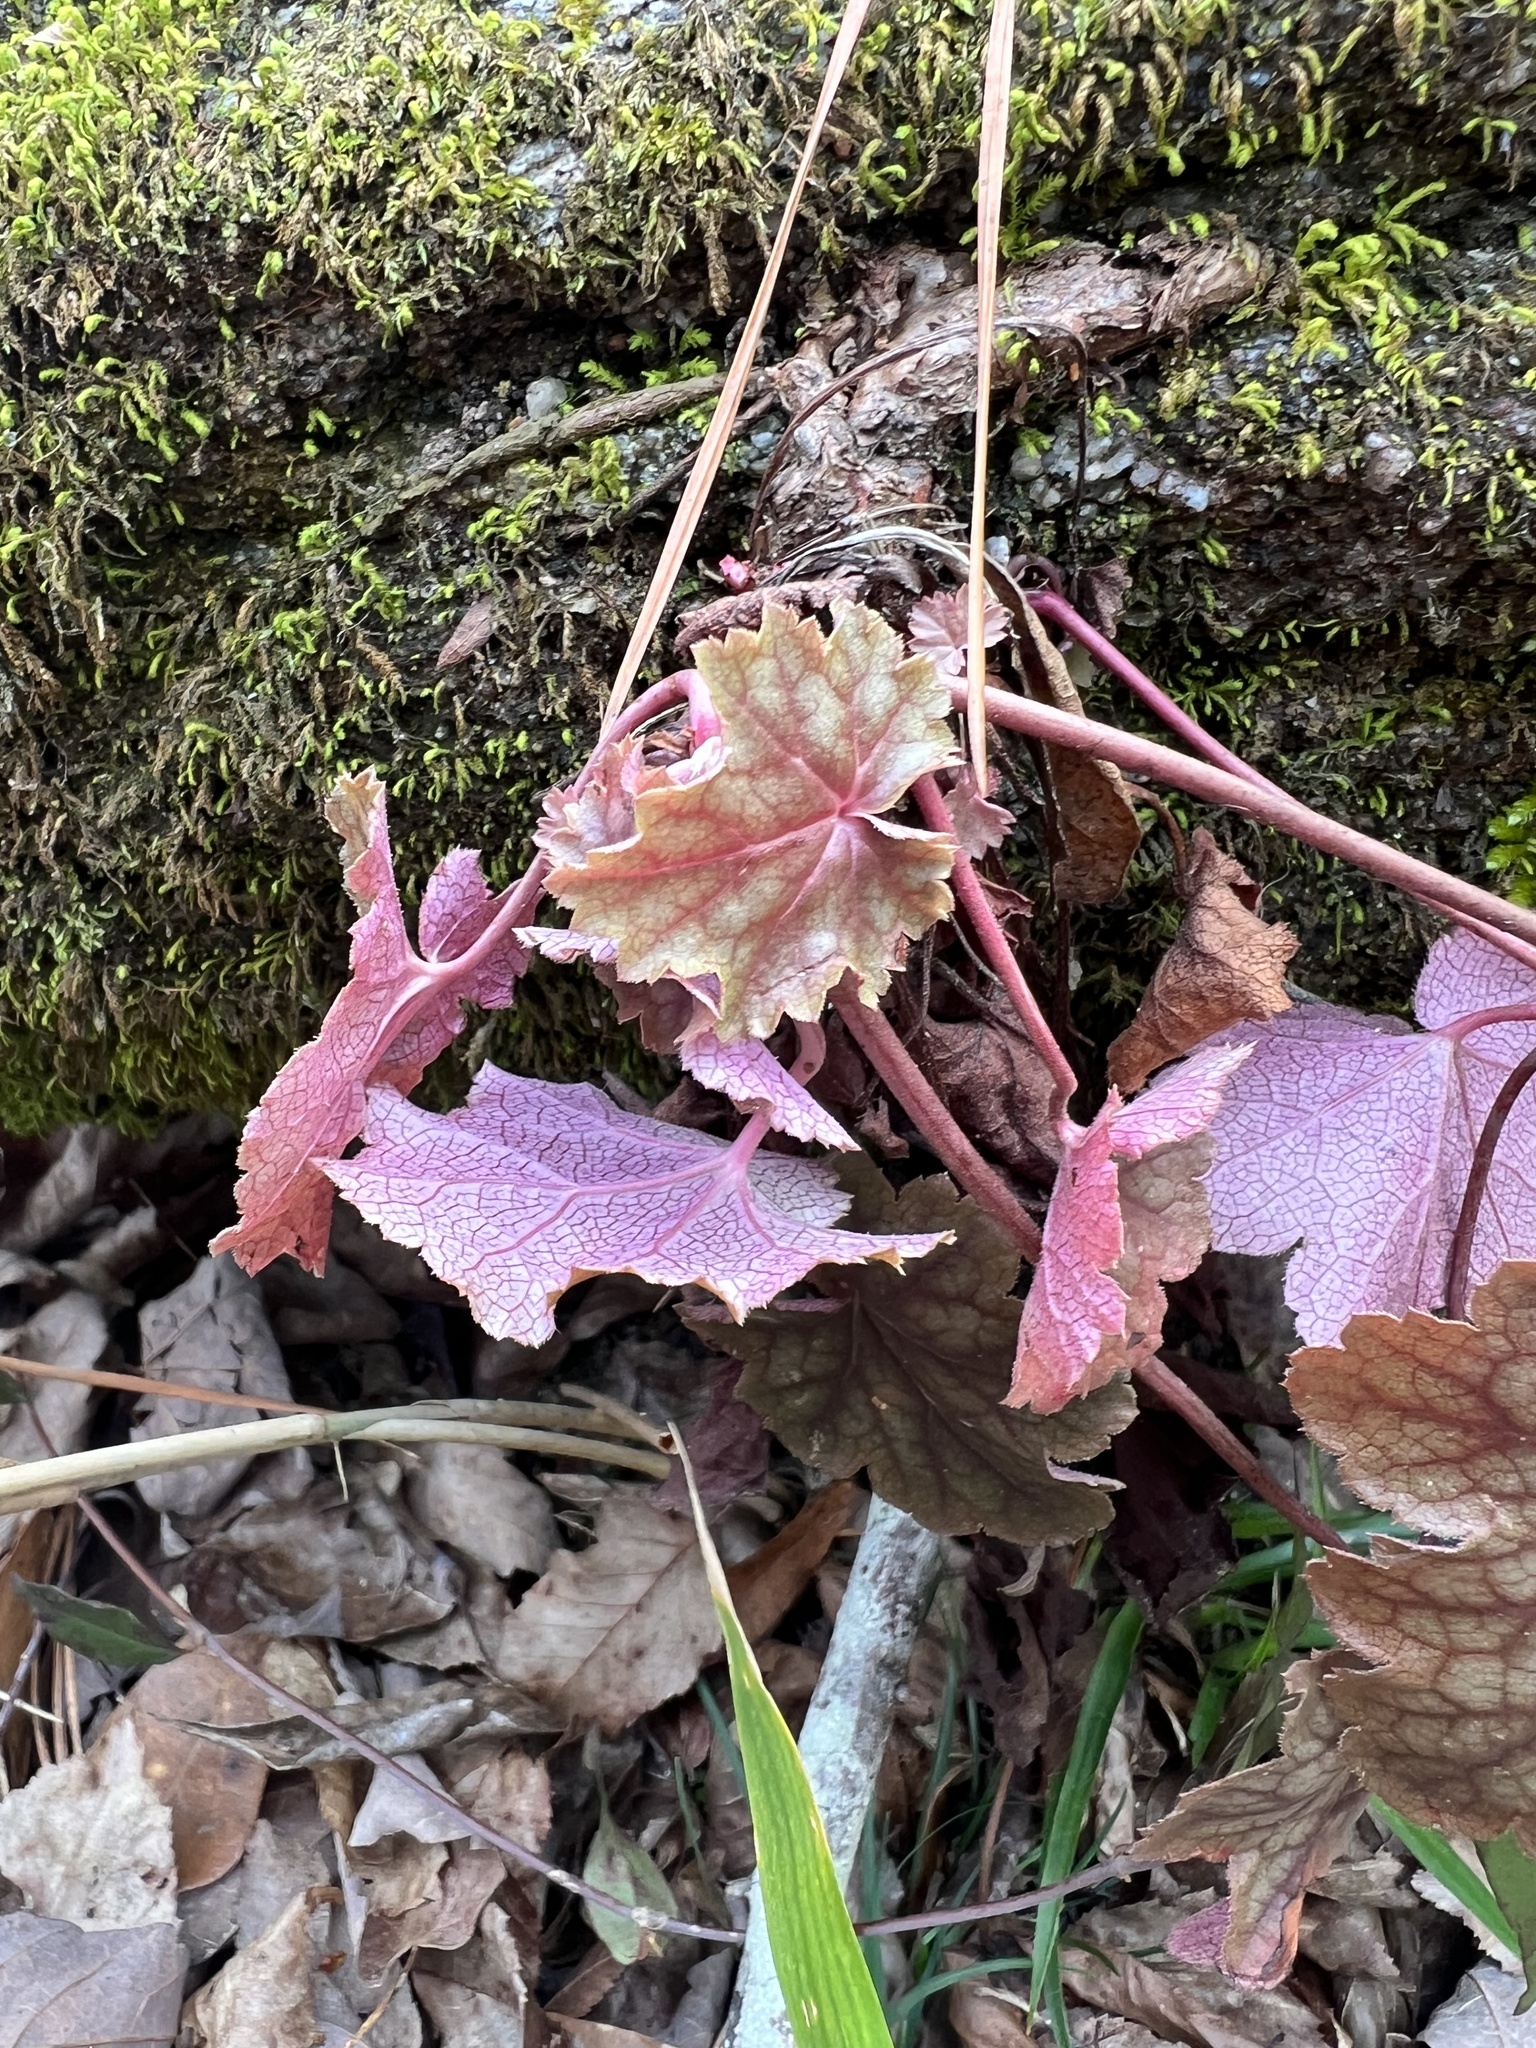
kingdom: Plantae
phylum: Tracheophyta
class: Magnoliopsida
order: Saxifragales
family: Saxifragaceae
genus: Heuchera
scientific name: Heuchera americana
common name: Alumroot
